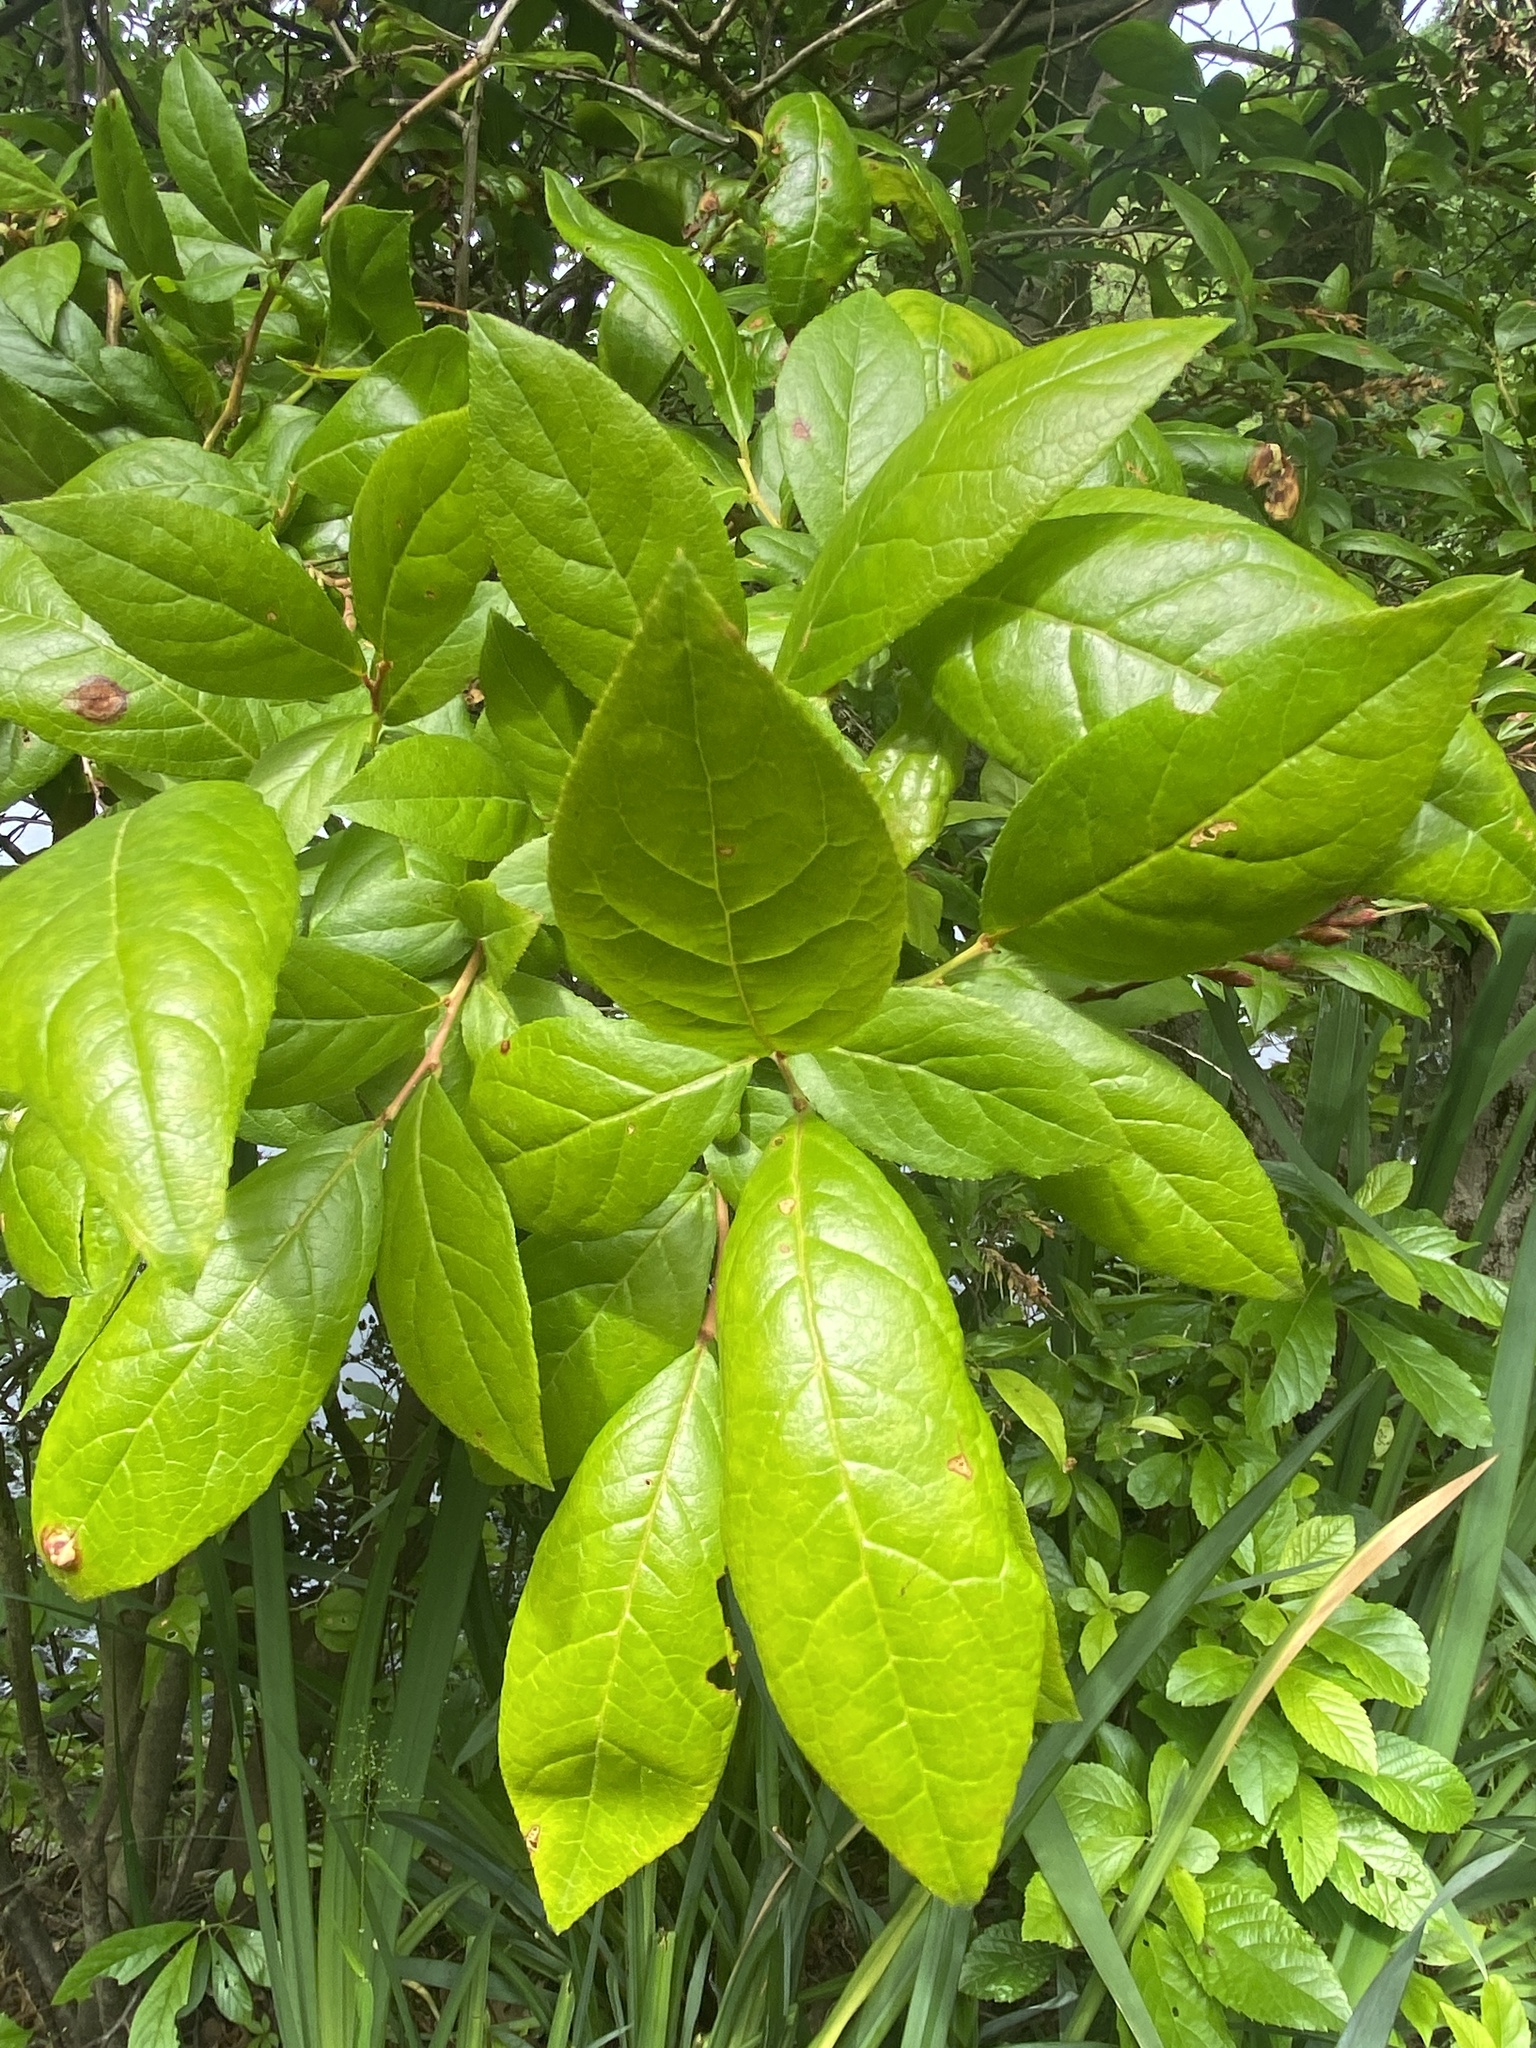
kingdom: Plantae
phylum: Tracheophyta
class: Magnoliopsida
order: Ericales
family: Ericaceae
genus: Eubotrys
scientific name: Eubotrys racemosa
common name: Fetterbush
